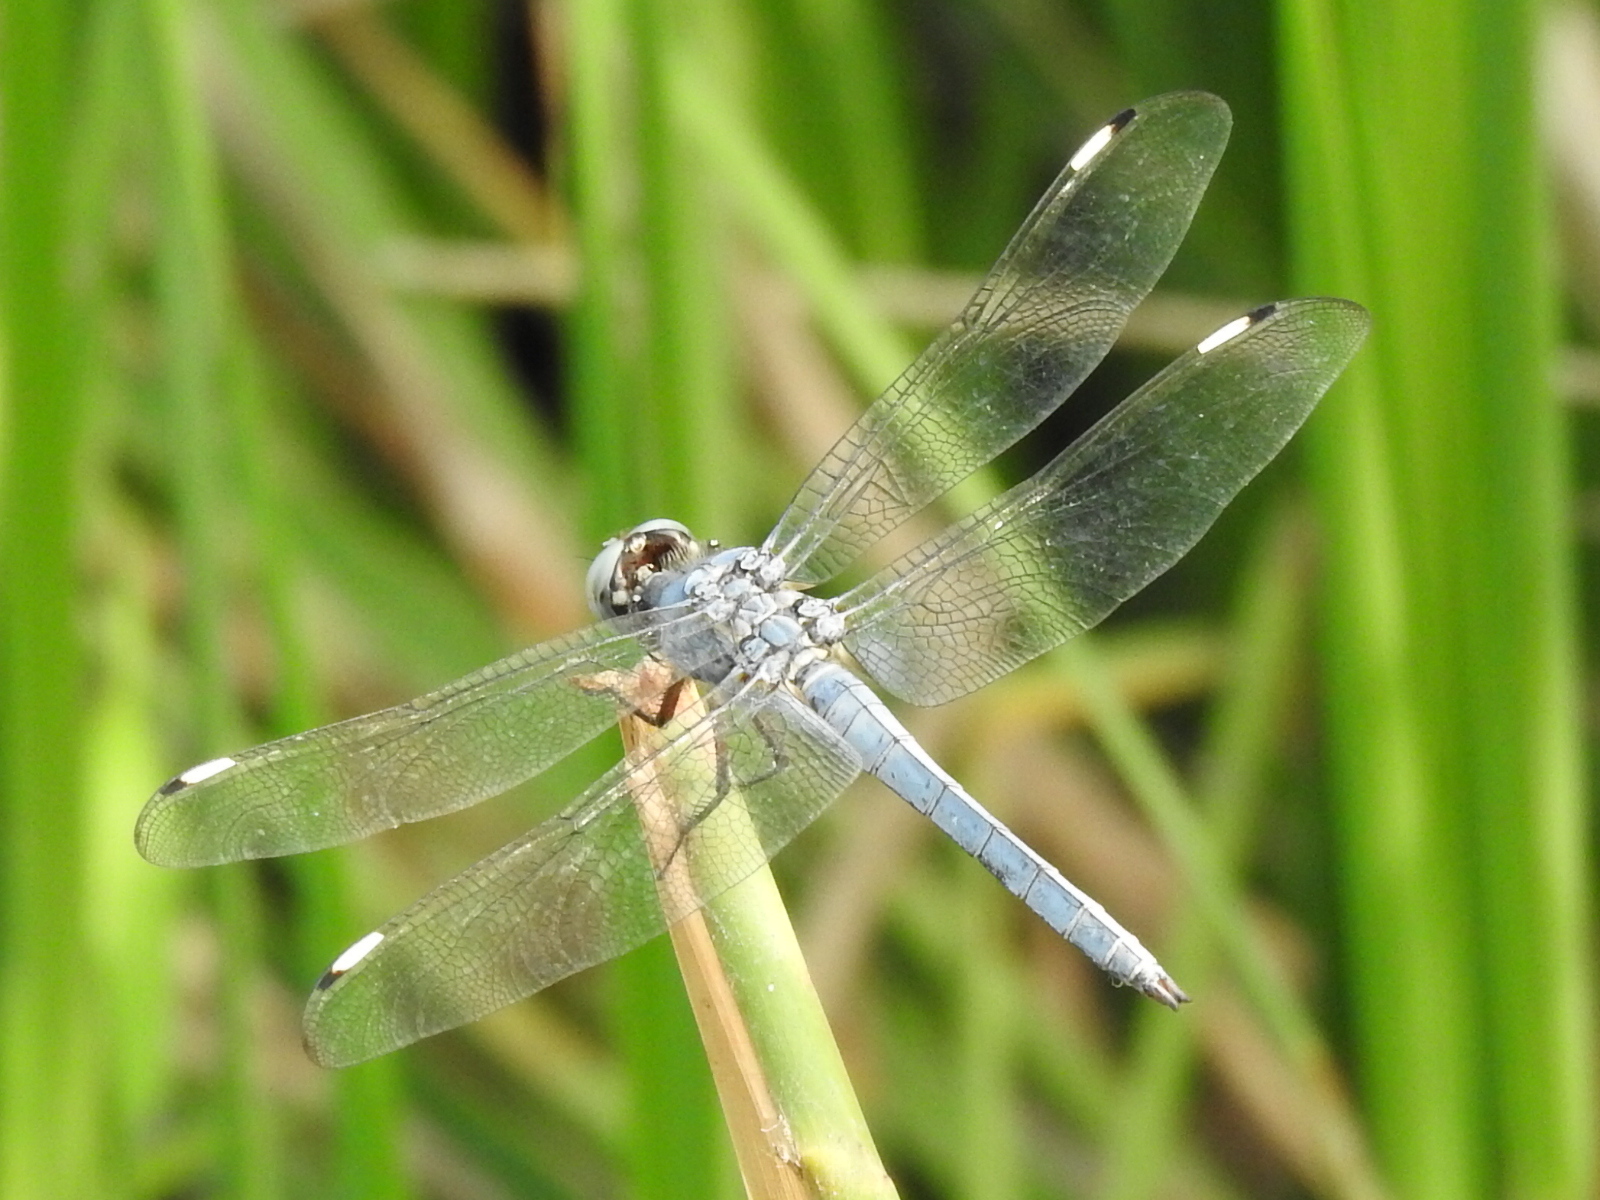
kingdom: Animalia
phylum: Arthropoda
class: Insecta
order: Odonata
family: Libellulidae
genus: Libellula
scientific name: Libellula comanche
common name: Comanche skimmer
